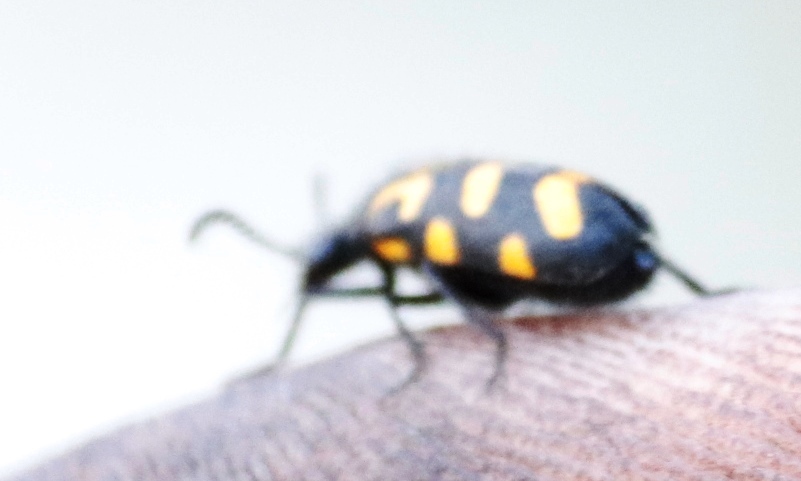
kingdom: Animalia
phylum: Arthropoda
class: Insecta
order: Coleoptera
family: Meloidae
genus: Ceroctis
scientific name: Ceroctis capensis
